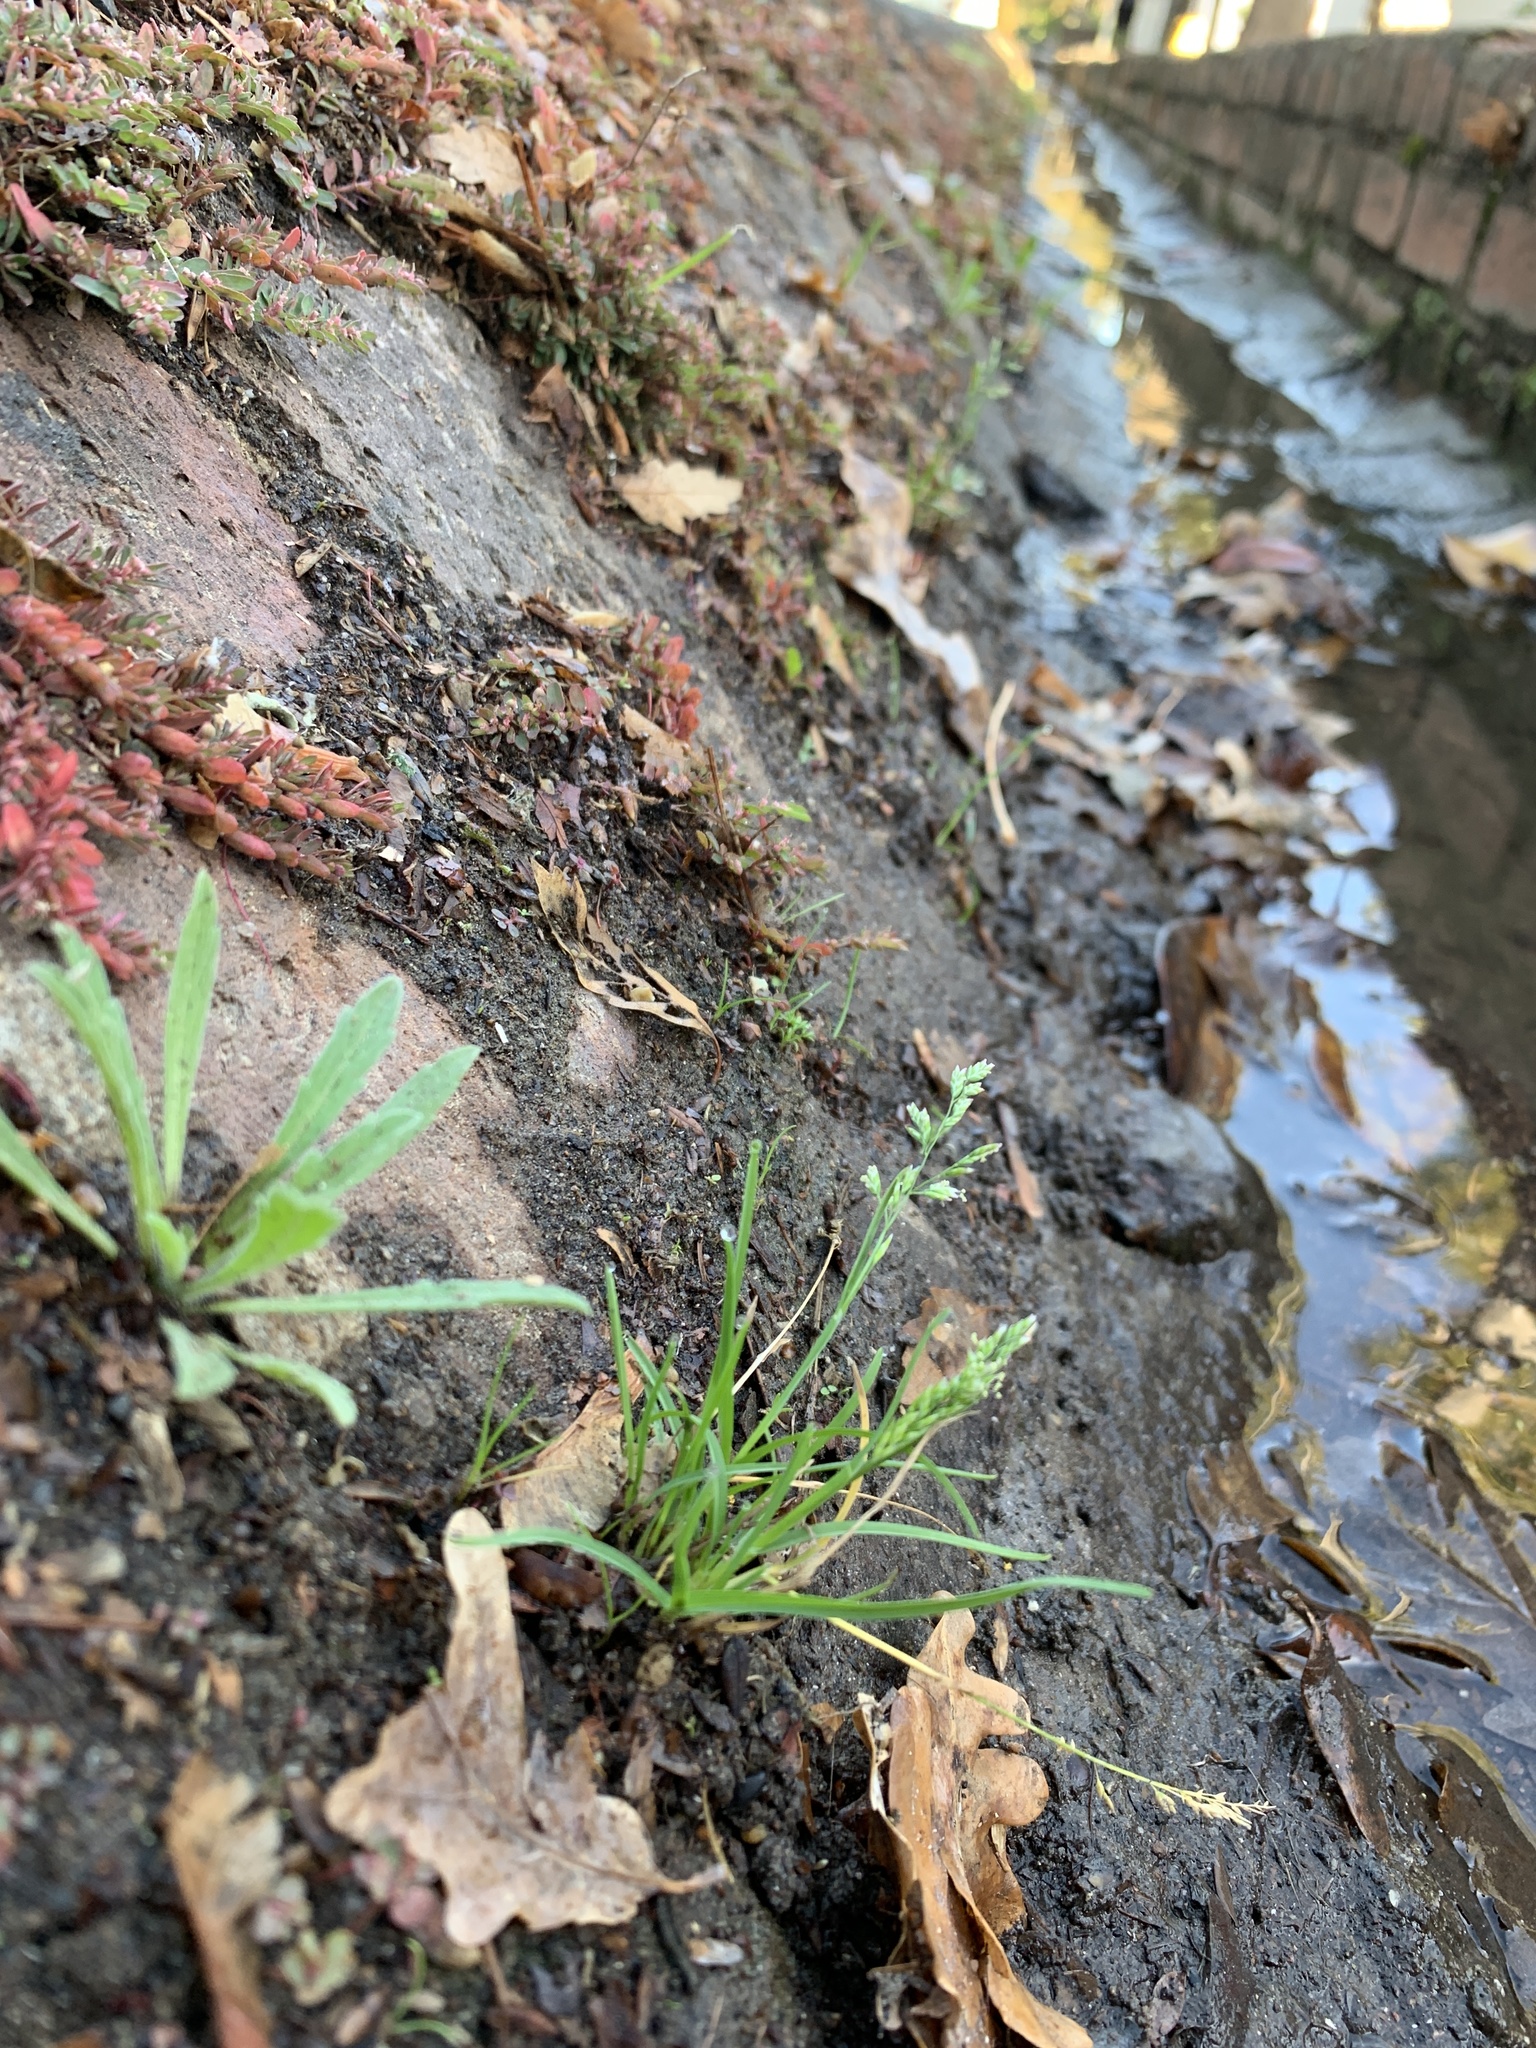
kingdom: Plantae
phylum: Tracheophyta
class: Liliopsida
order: Poales
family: Poaceae
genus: Poa
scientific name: Poa annua
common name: Annual bluegrass
